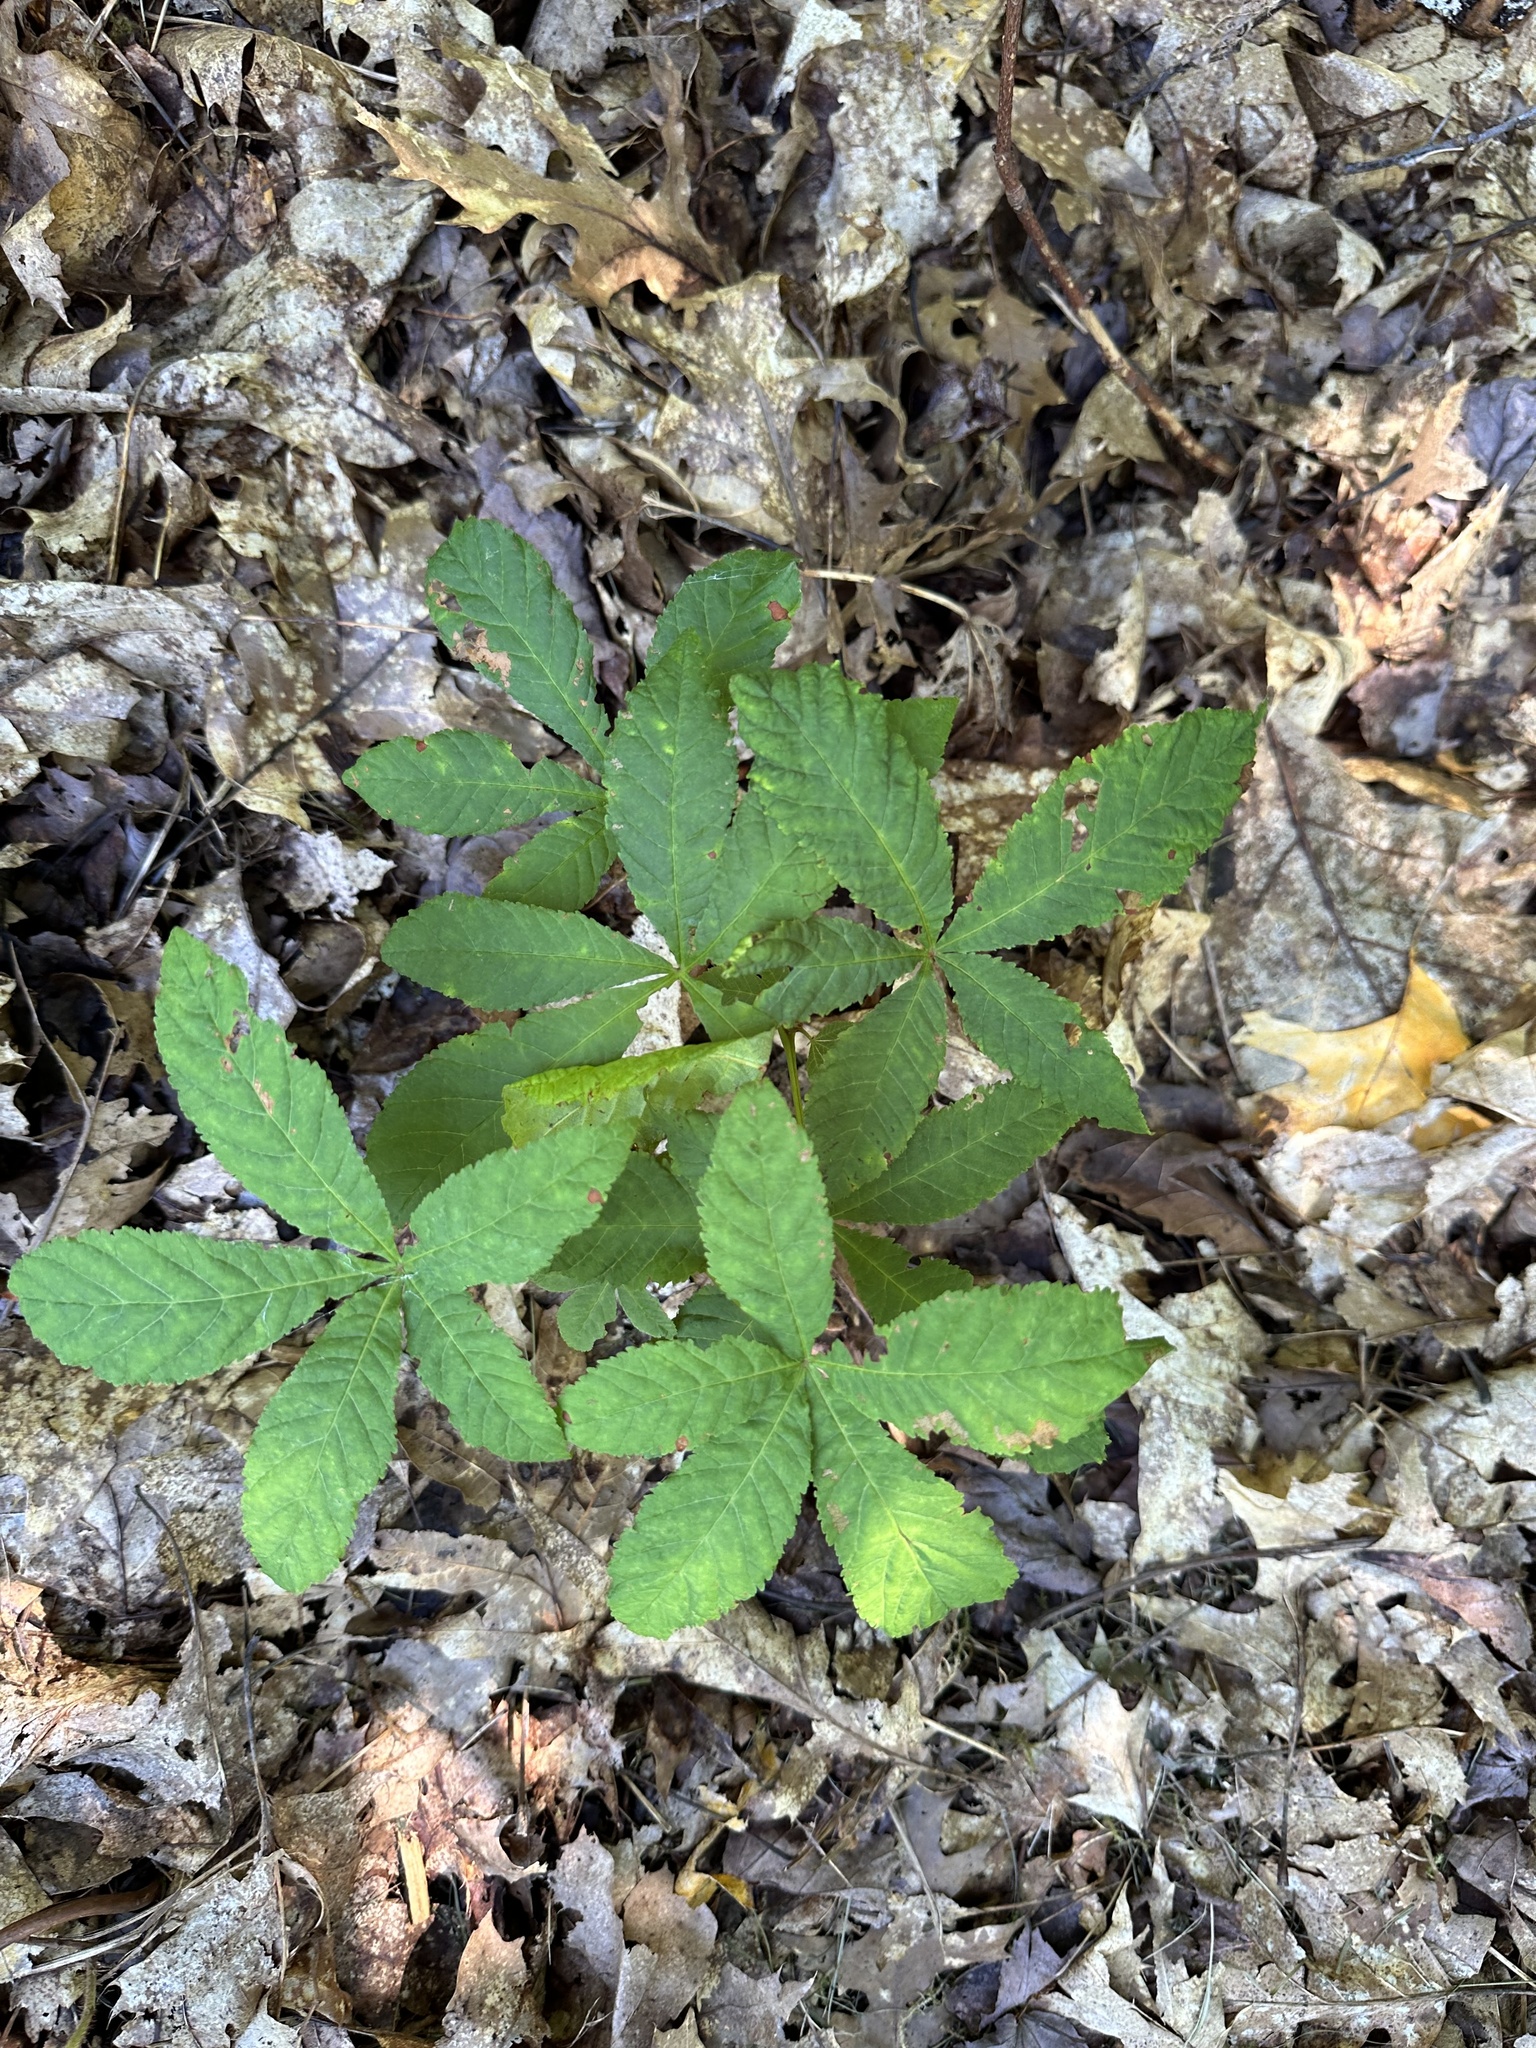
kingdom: Plantae
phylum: Tracheophyta
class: Magnoliopsida
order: Sapindales
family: Sapindaceae
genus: Aesculus
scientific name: Aesculus hippocastanum
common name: Horse-chestnut
